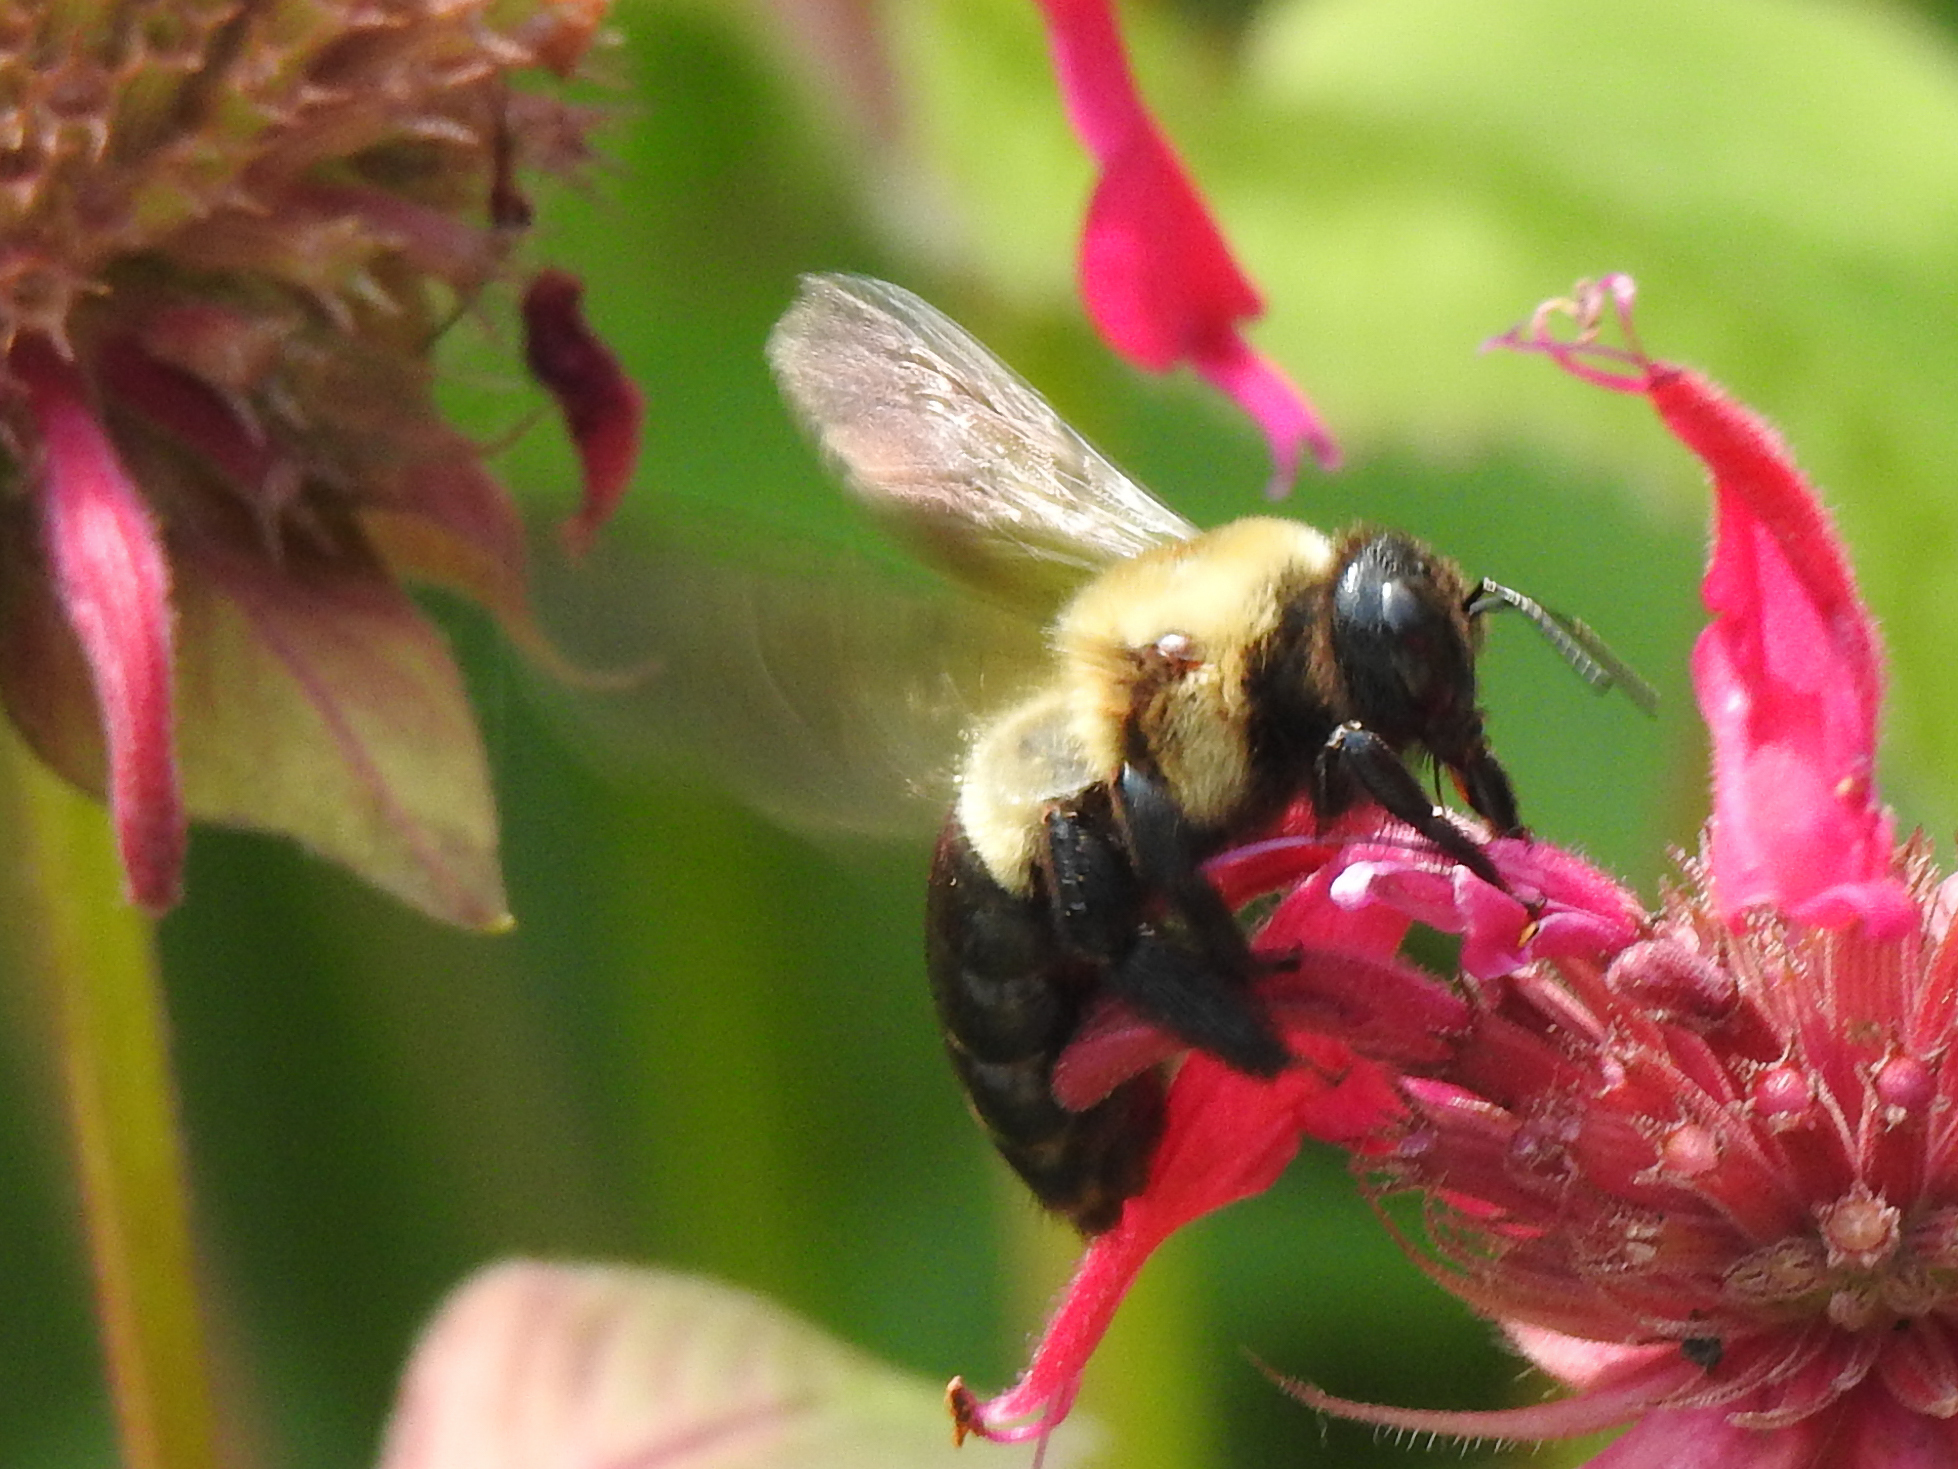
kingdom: Animalia
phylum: Arthropoda
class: Insecta
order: Hymenoptera
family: Apidae
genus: Xylocopa
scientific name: Xylocopa virginica
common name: Carpenter bee
